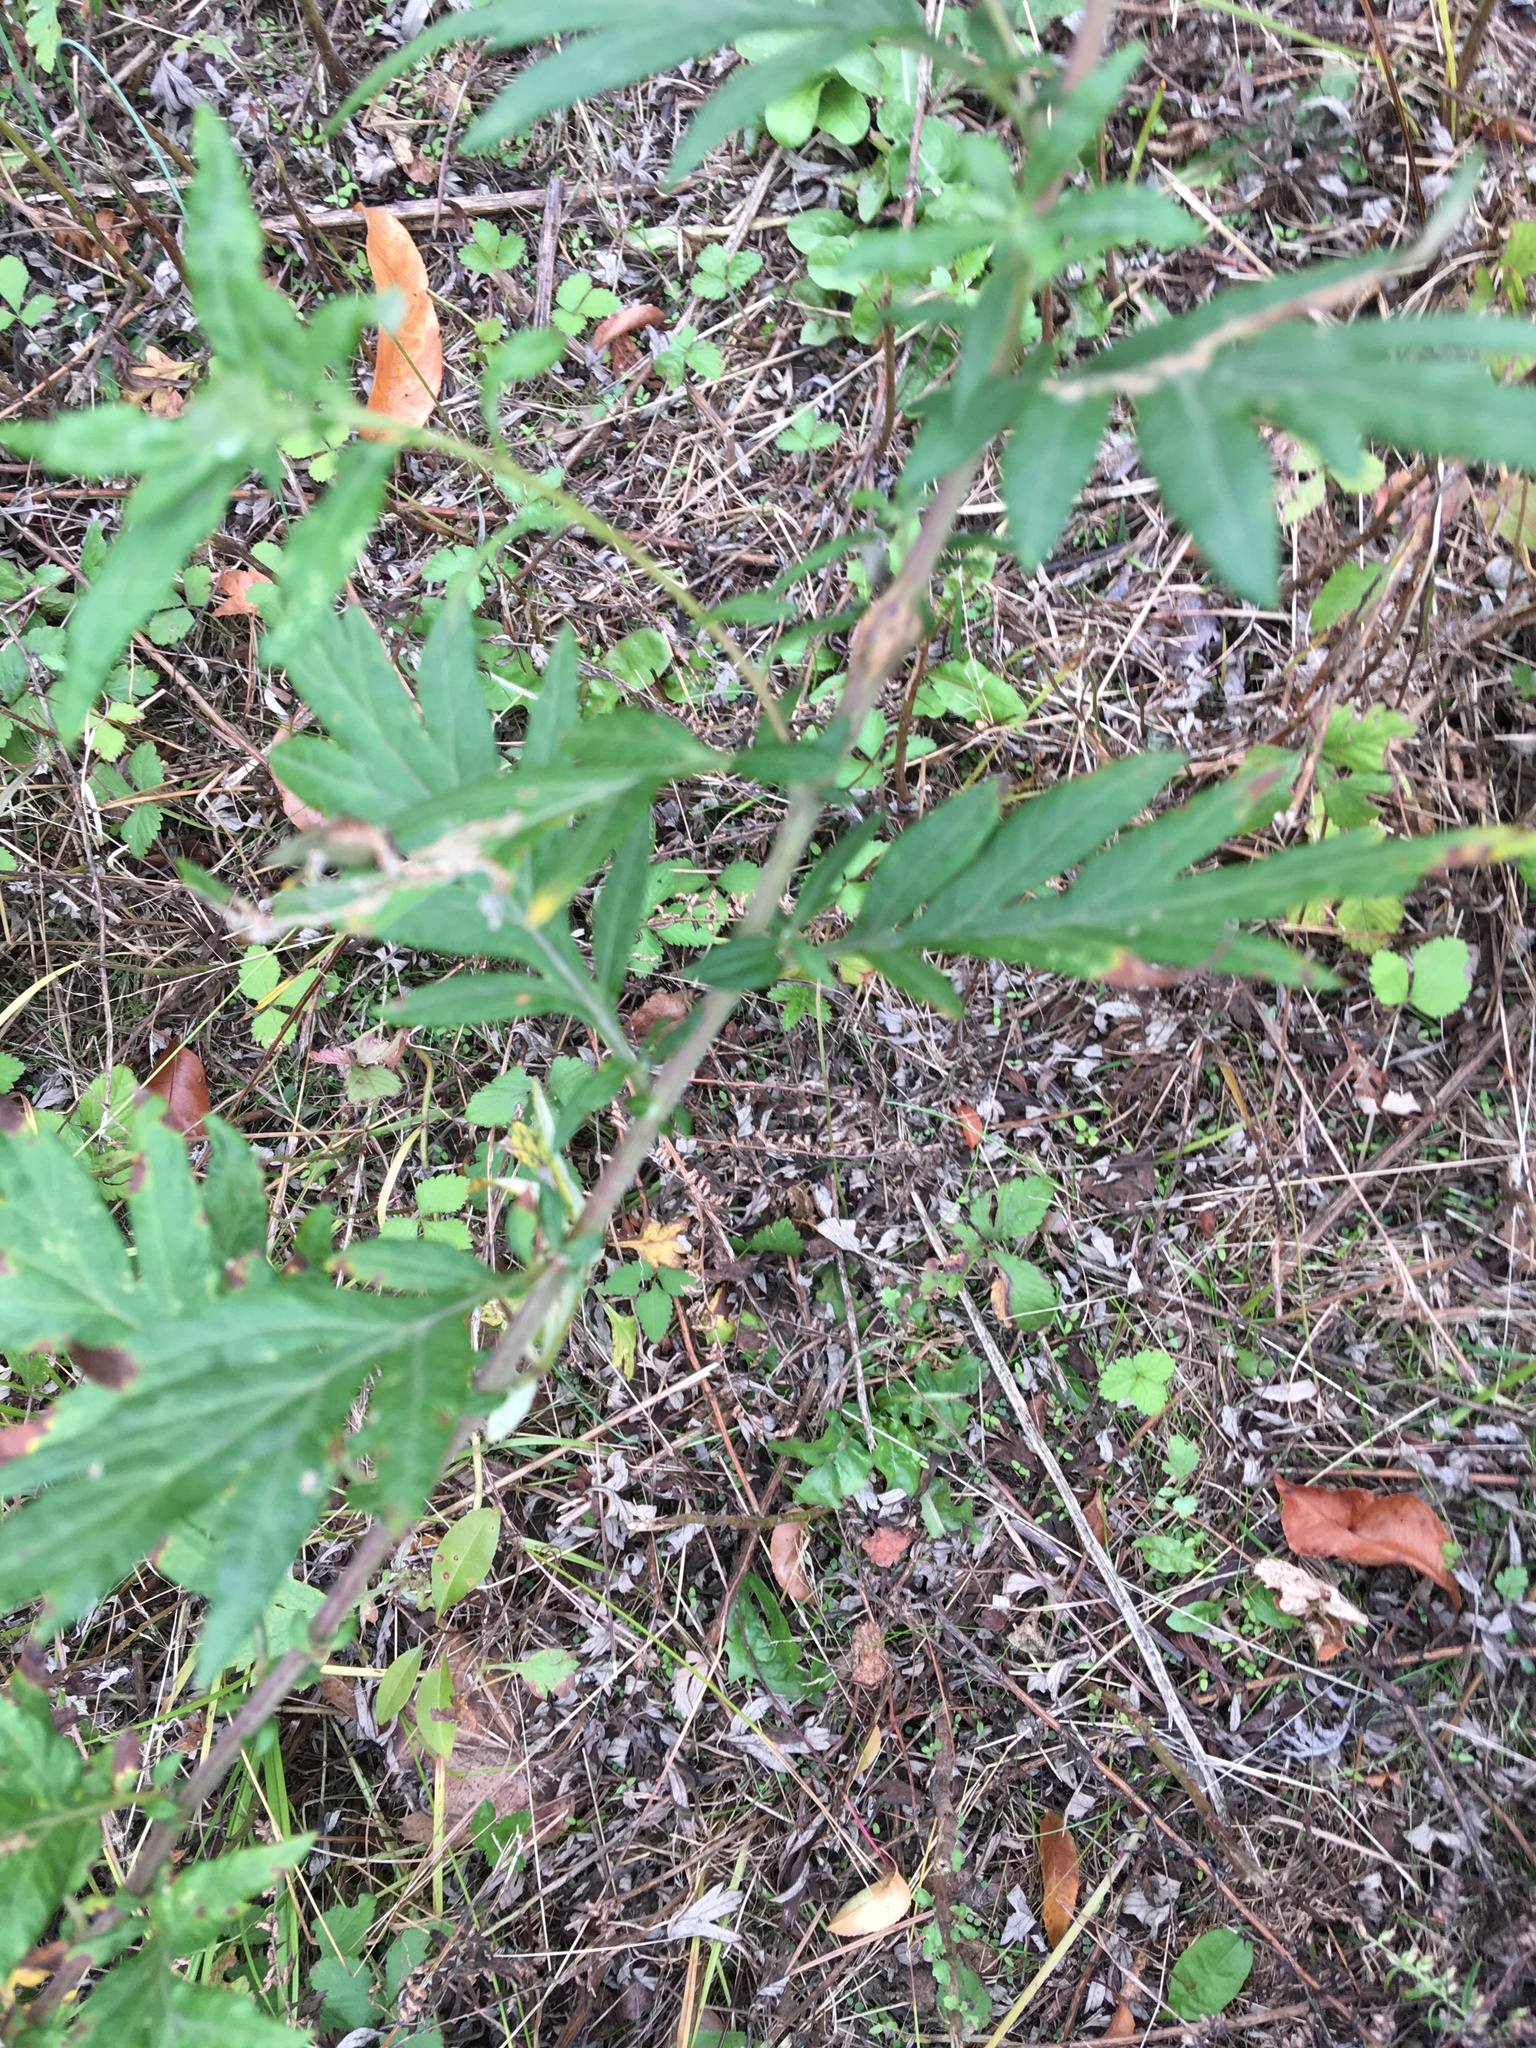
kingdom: Plantae
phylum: Tracheophyta
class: Magnoliopsida
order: Asterales
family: Asteraceae
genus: Artemisia
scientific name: Artemisia vulgaris
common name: Mugwort
